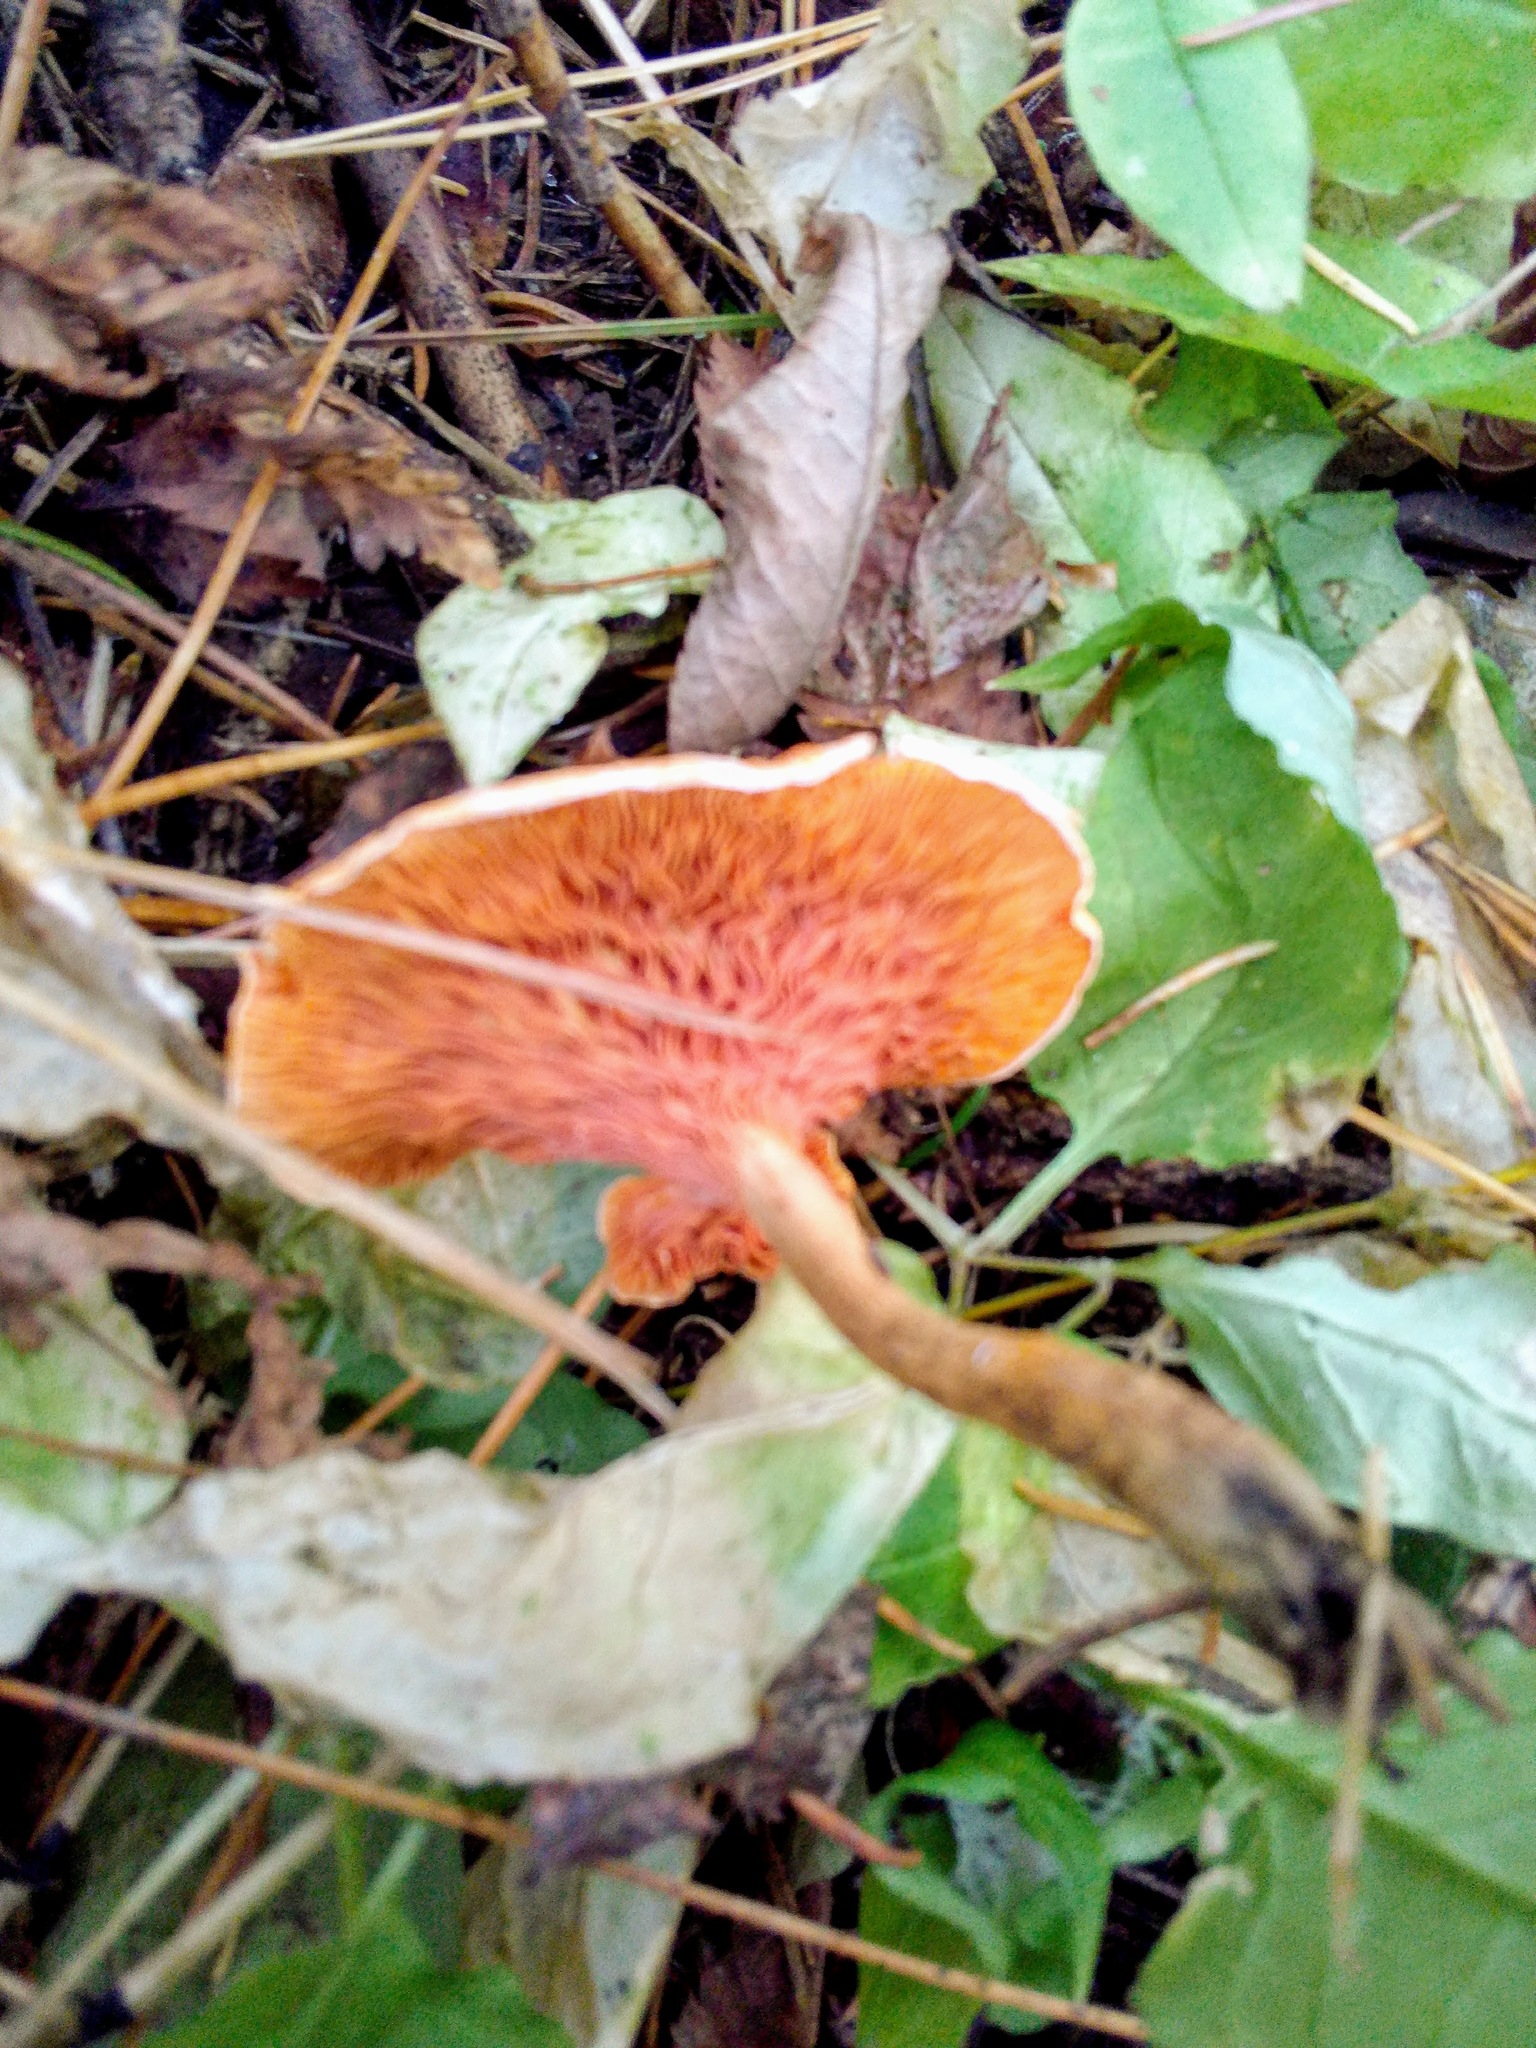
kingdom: Fungi
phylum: Basidiomycota
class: Agaricomycetes
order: Boletales
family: Hygrophoropsidaceae
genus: Hygrophoropsis
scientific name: Hygrophoropsis aurantiaca
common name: False chanterelle
